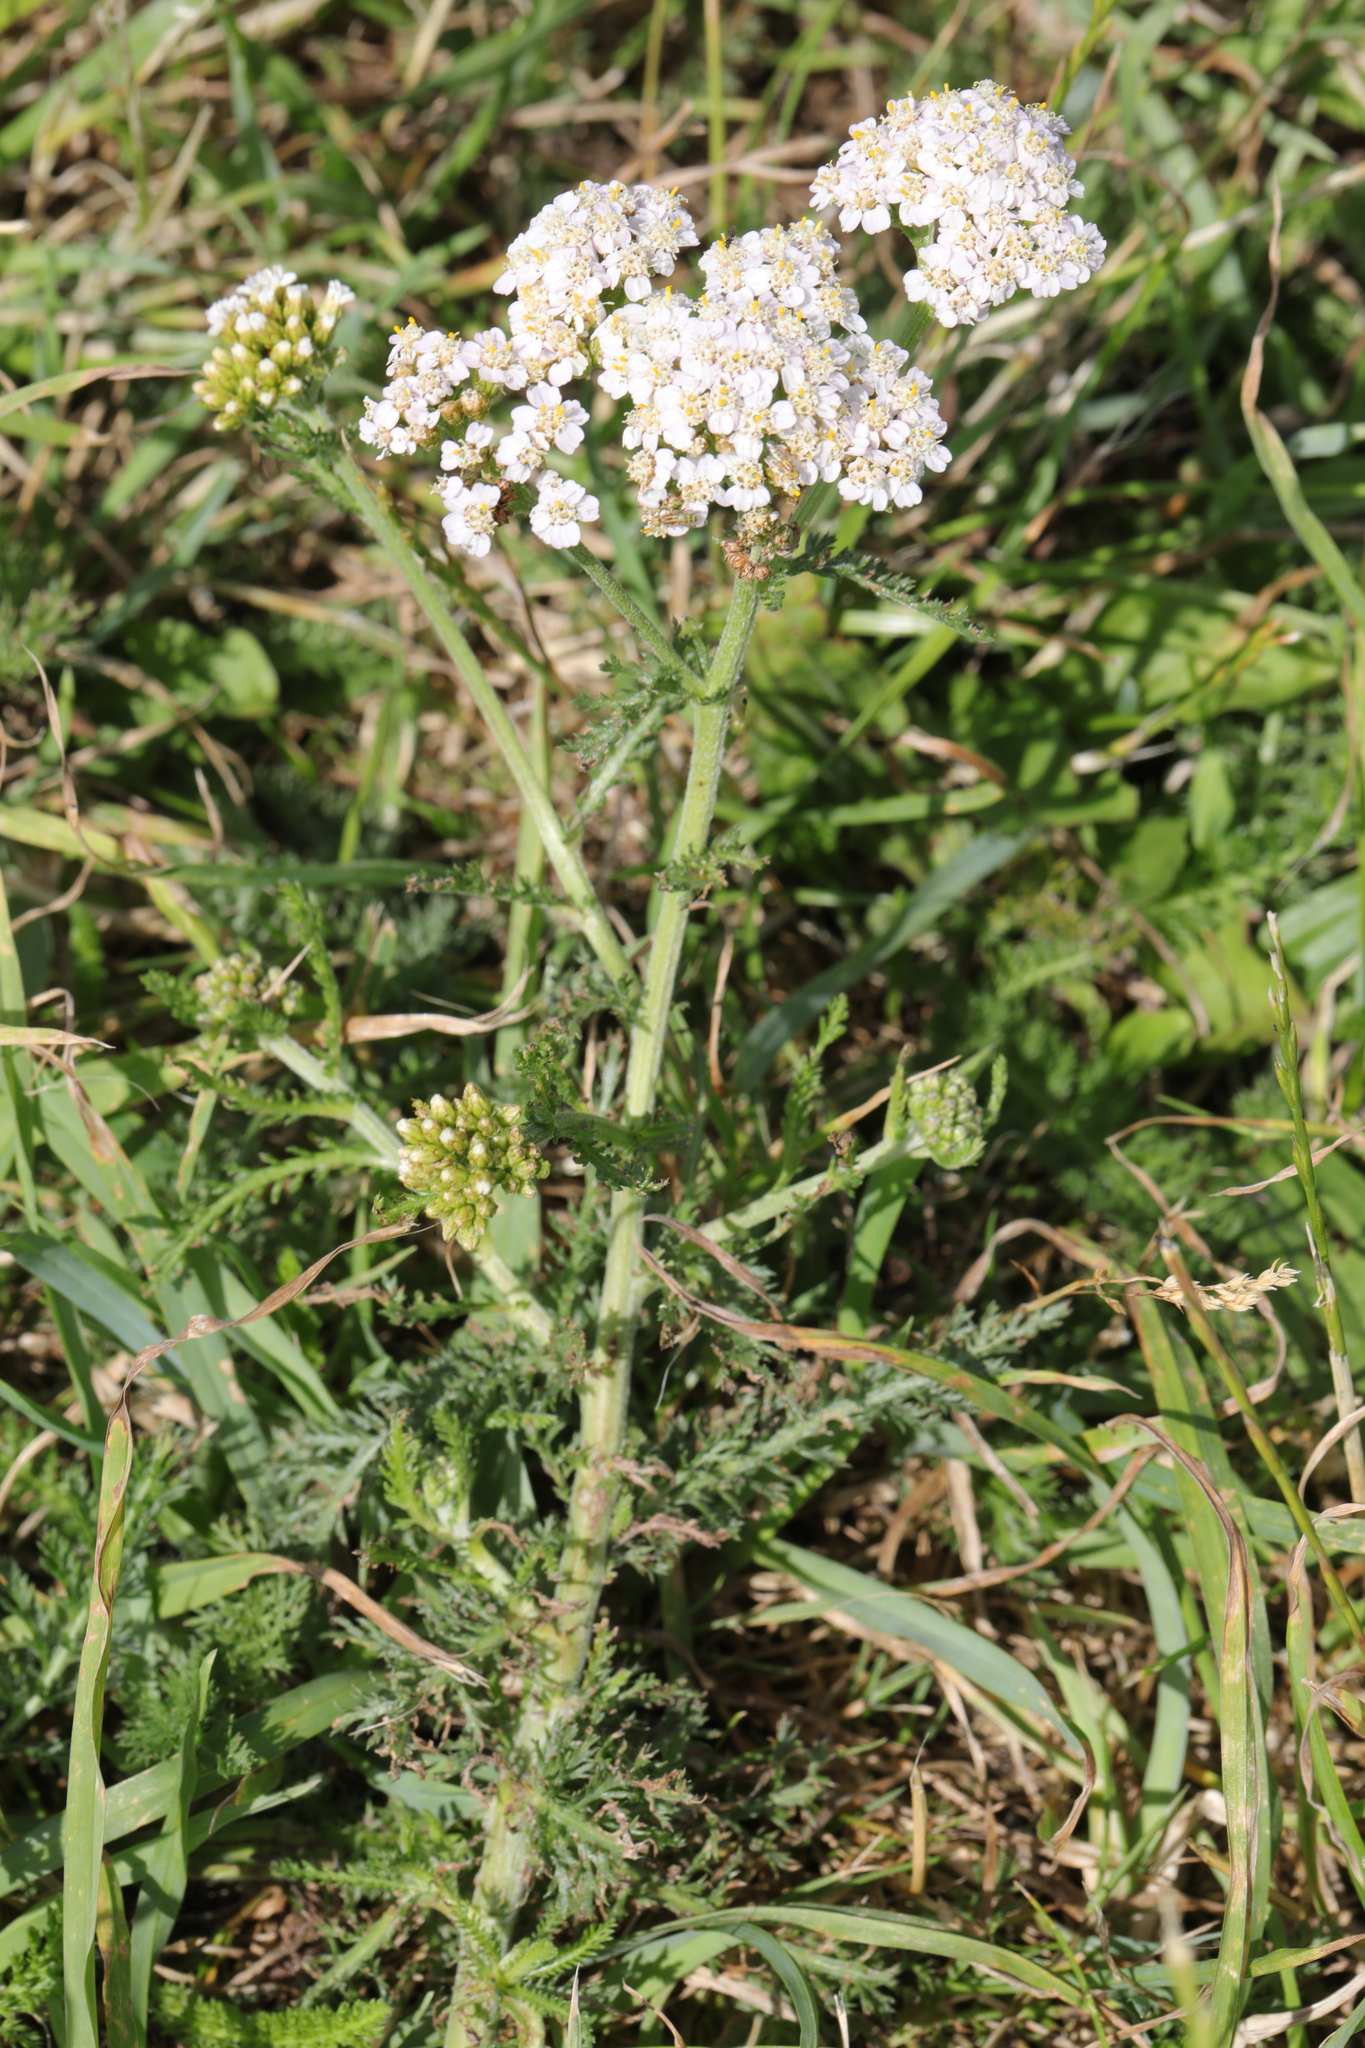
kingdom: Plantae
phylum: Tracheophyta
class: Magnoliopsida
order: Asterales
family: Asteraceae
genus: Achillea
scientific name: Achillea millefolium
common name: Yarrow
